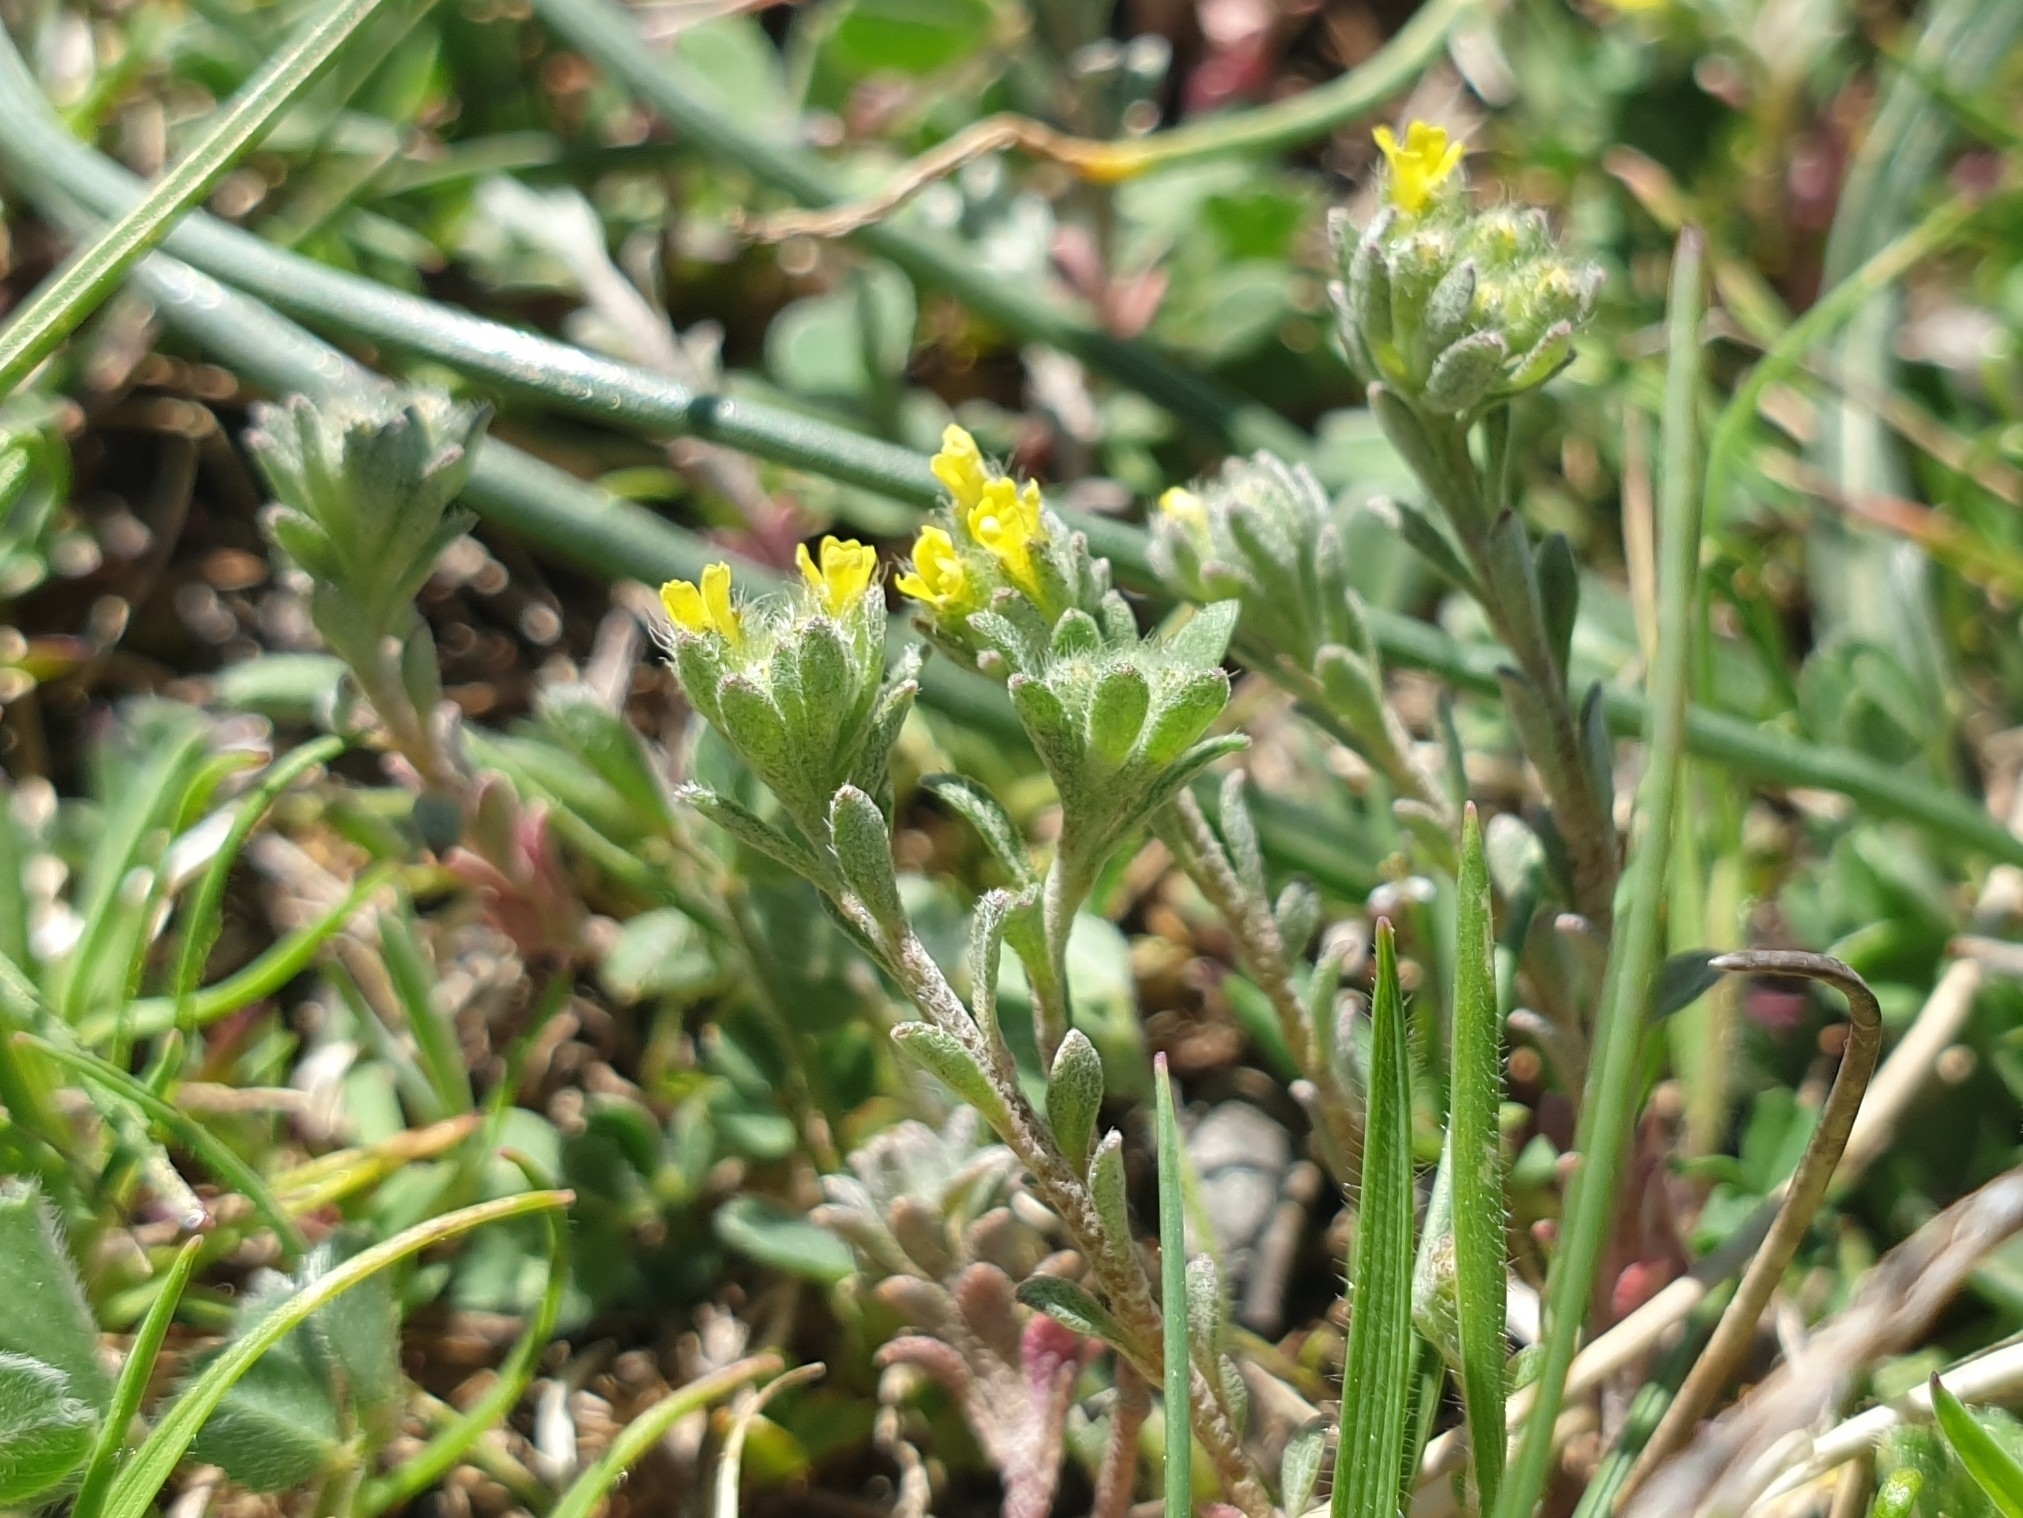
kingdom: Plantae
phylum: Tracheophyta
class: Magnoliopsida
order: Brassicales
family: Brassicaceae
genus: Alyssum
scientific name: Alyssum alyssoides
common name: Small alison
